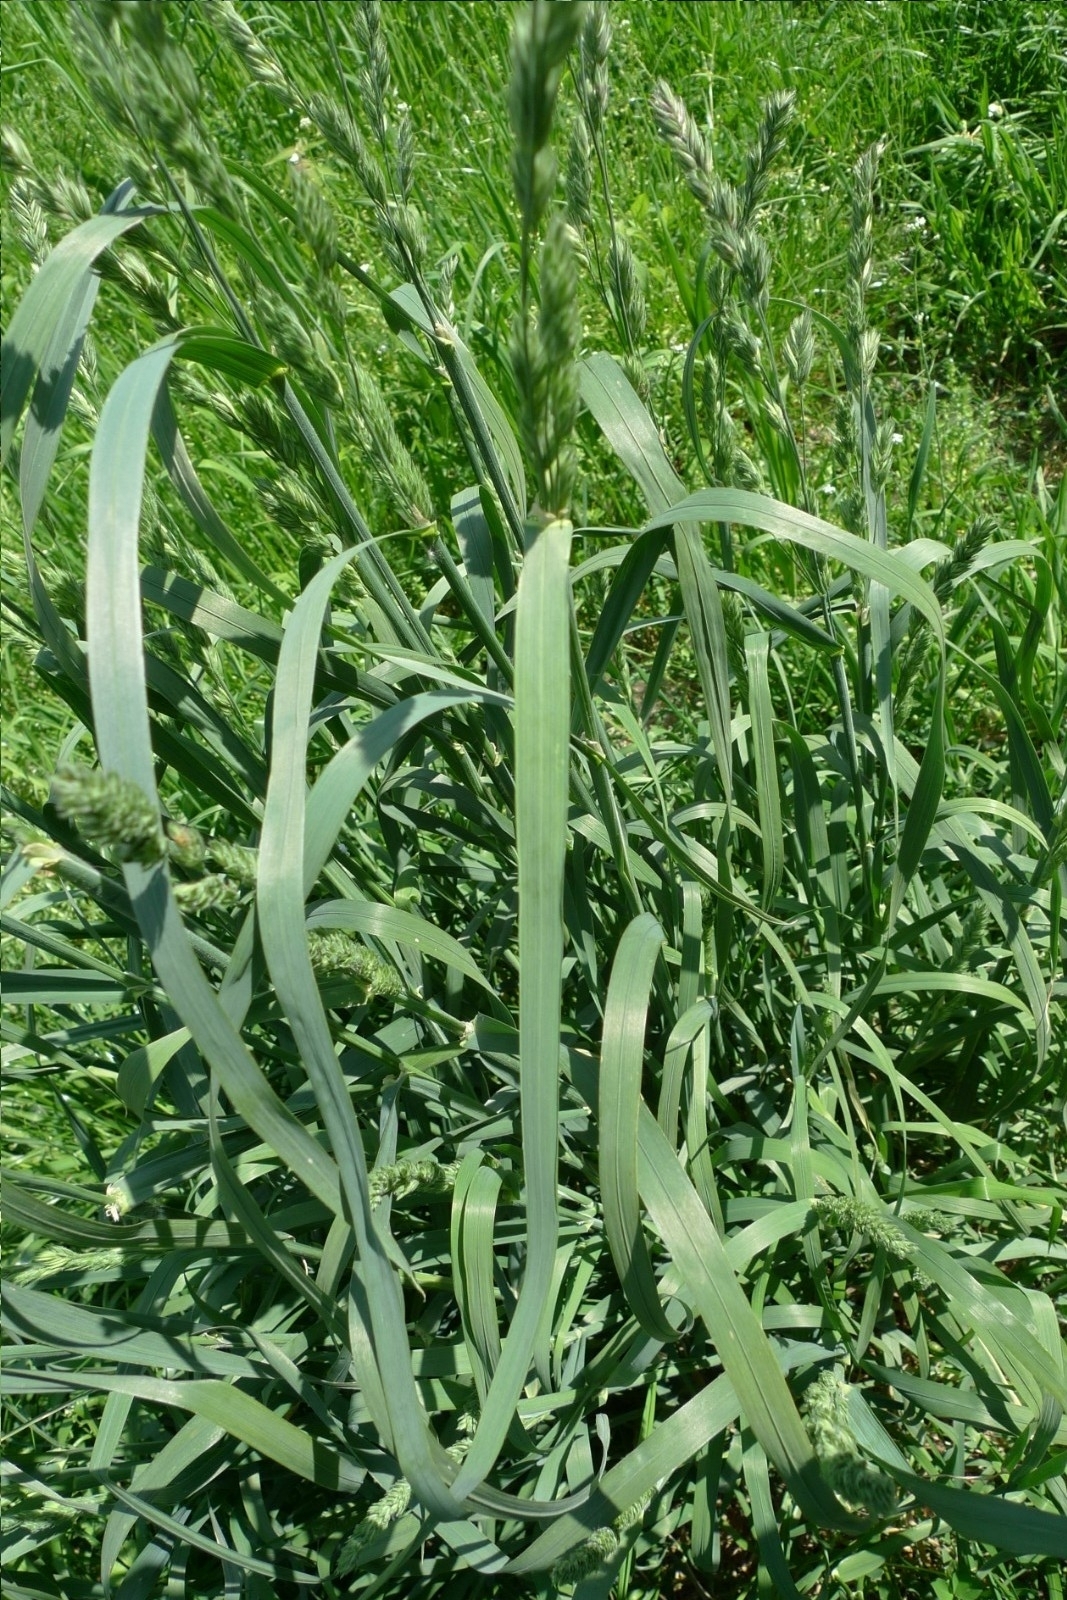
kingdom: Plantae
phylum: Tracheophyta
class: Liliopsida
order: Poales
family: Poaceae
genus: Dactylis
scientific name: Dactylis glomerata
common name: Orchardgrass
